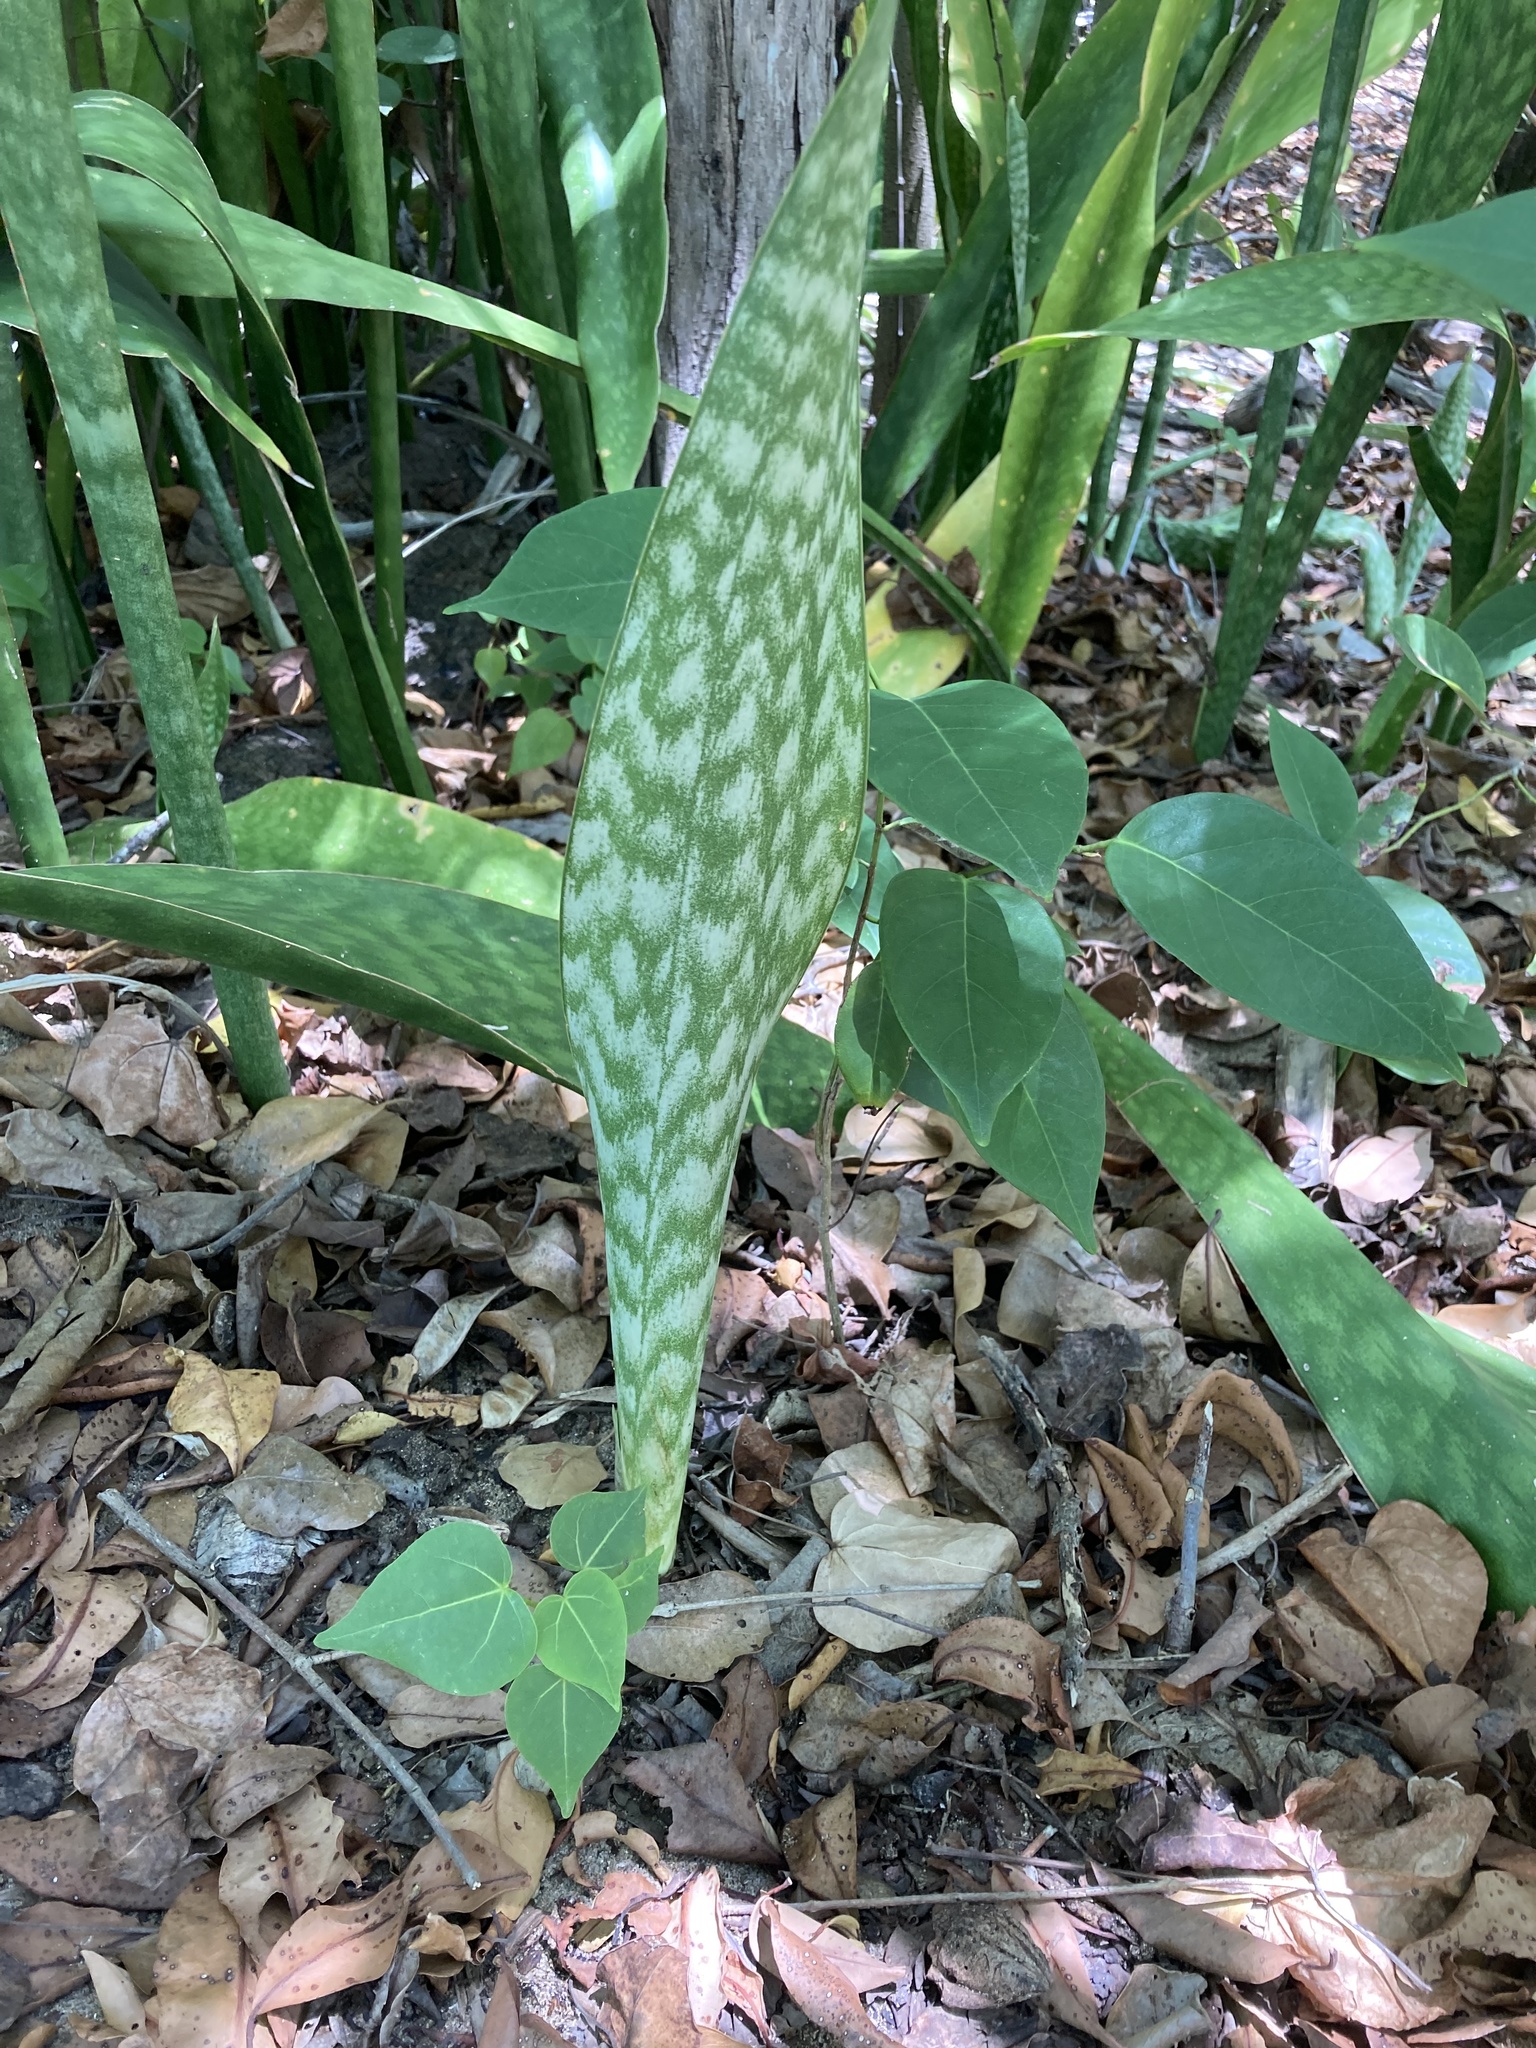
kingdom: Plantae
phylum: Tracheophyta
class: Liliopsida
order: Asparagales
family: Asparagaceae
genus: Dracaena
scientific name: Dracaena trifasciata
